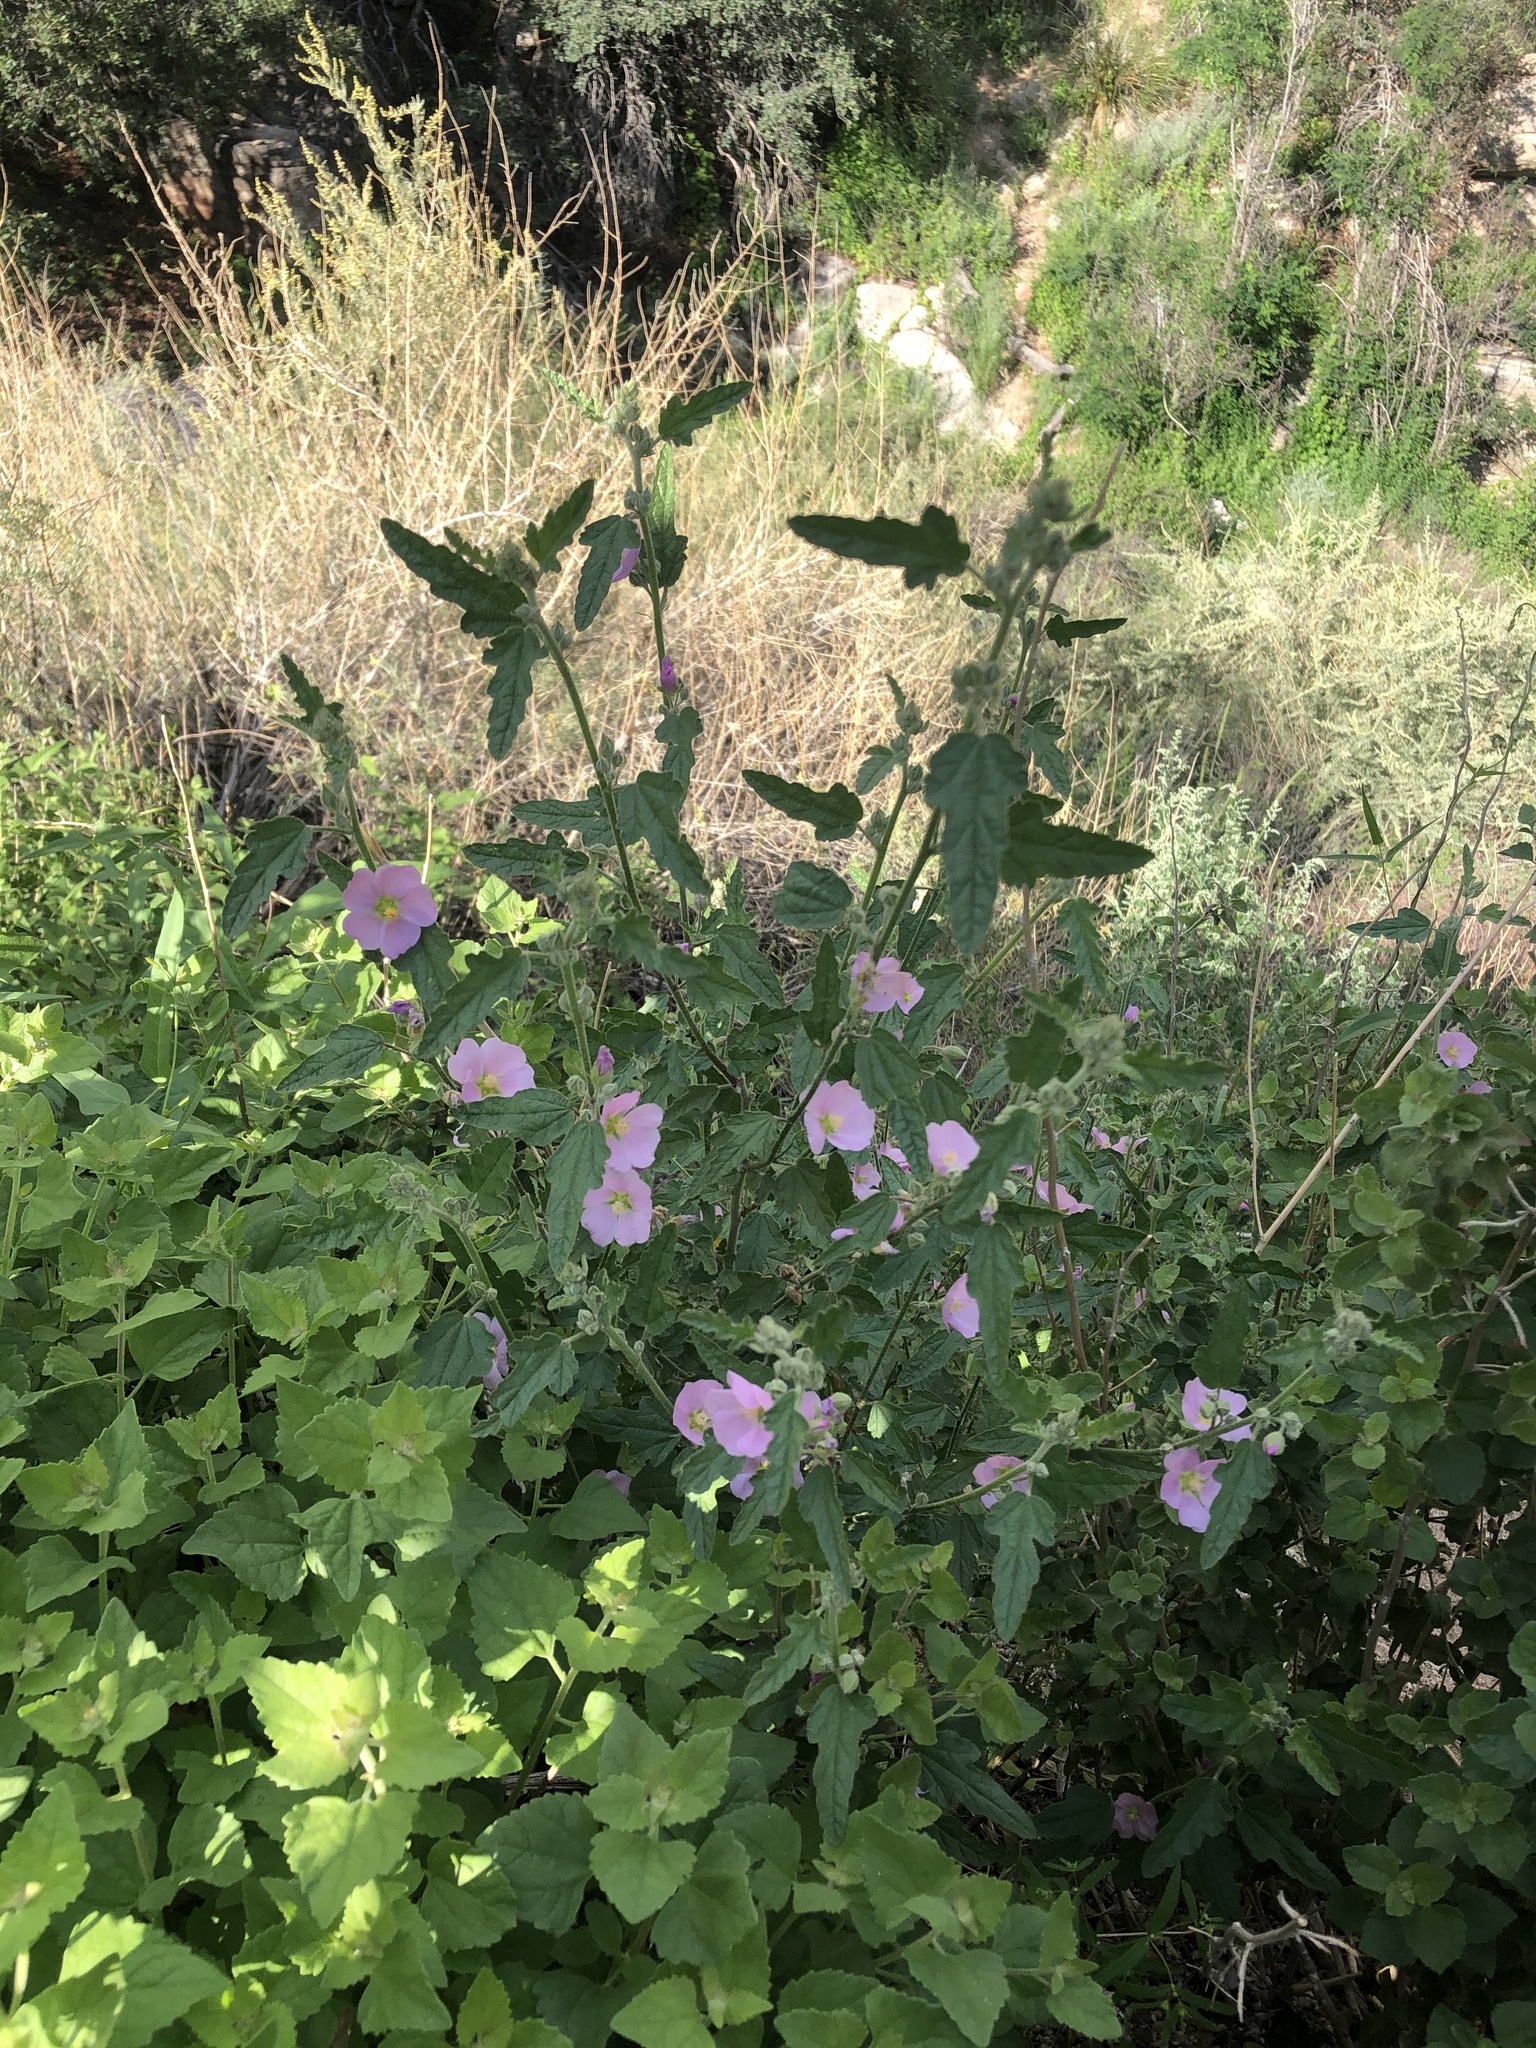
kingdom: Plantae
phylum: Tracheophyta
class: Magnoliopsida
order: Malvales
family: Malvaceae
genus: Sphaeralcea
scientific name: Sphaeralcea fendleri
